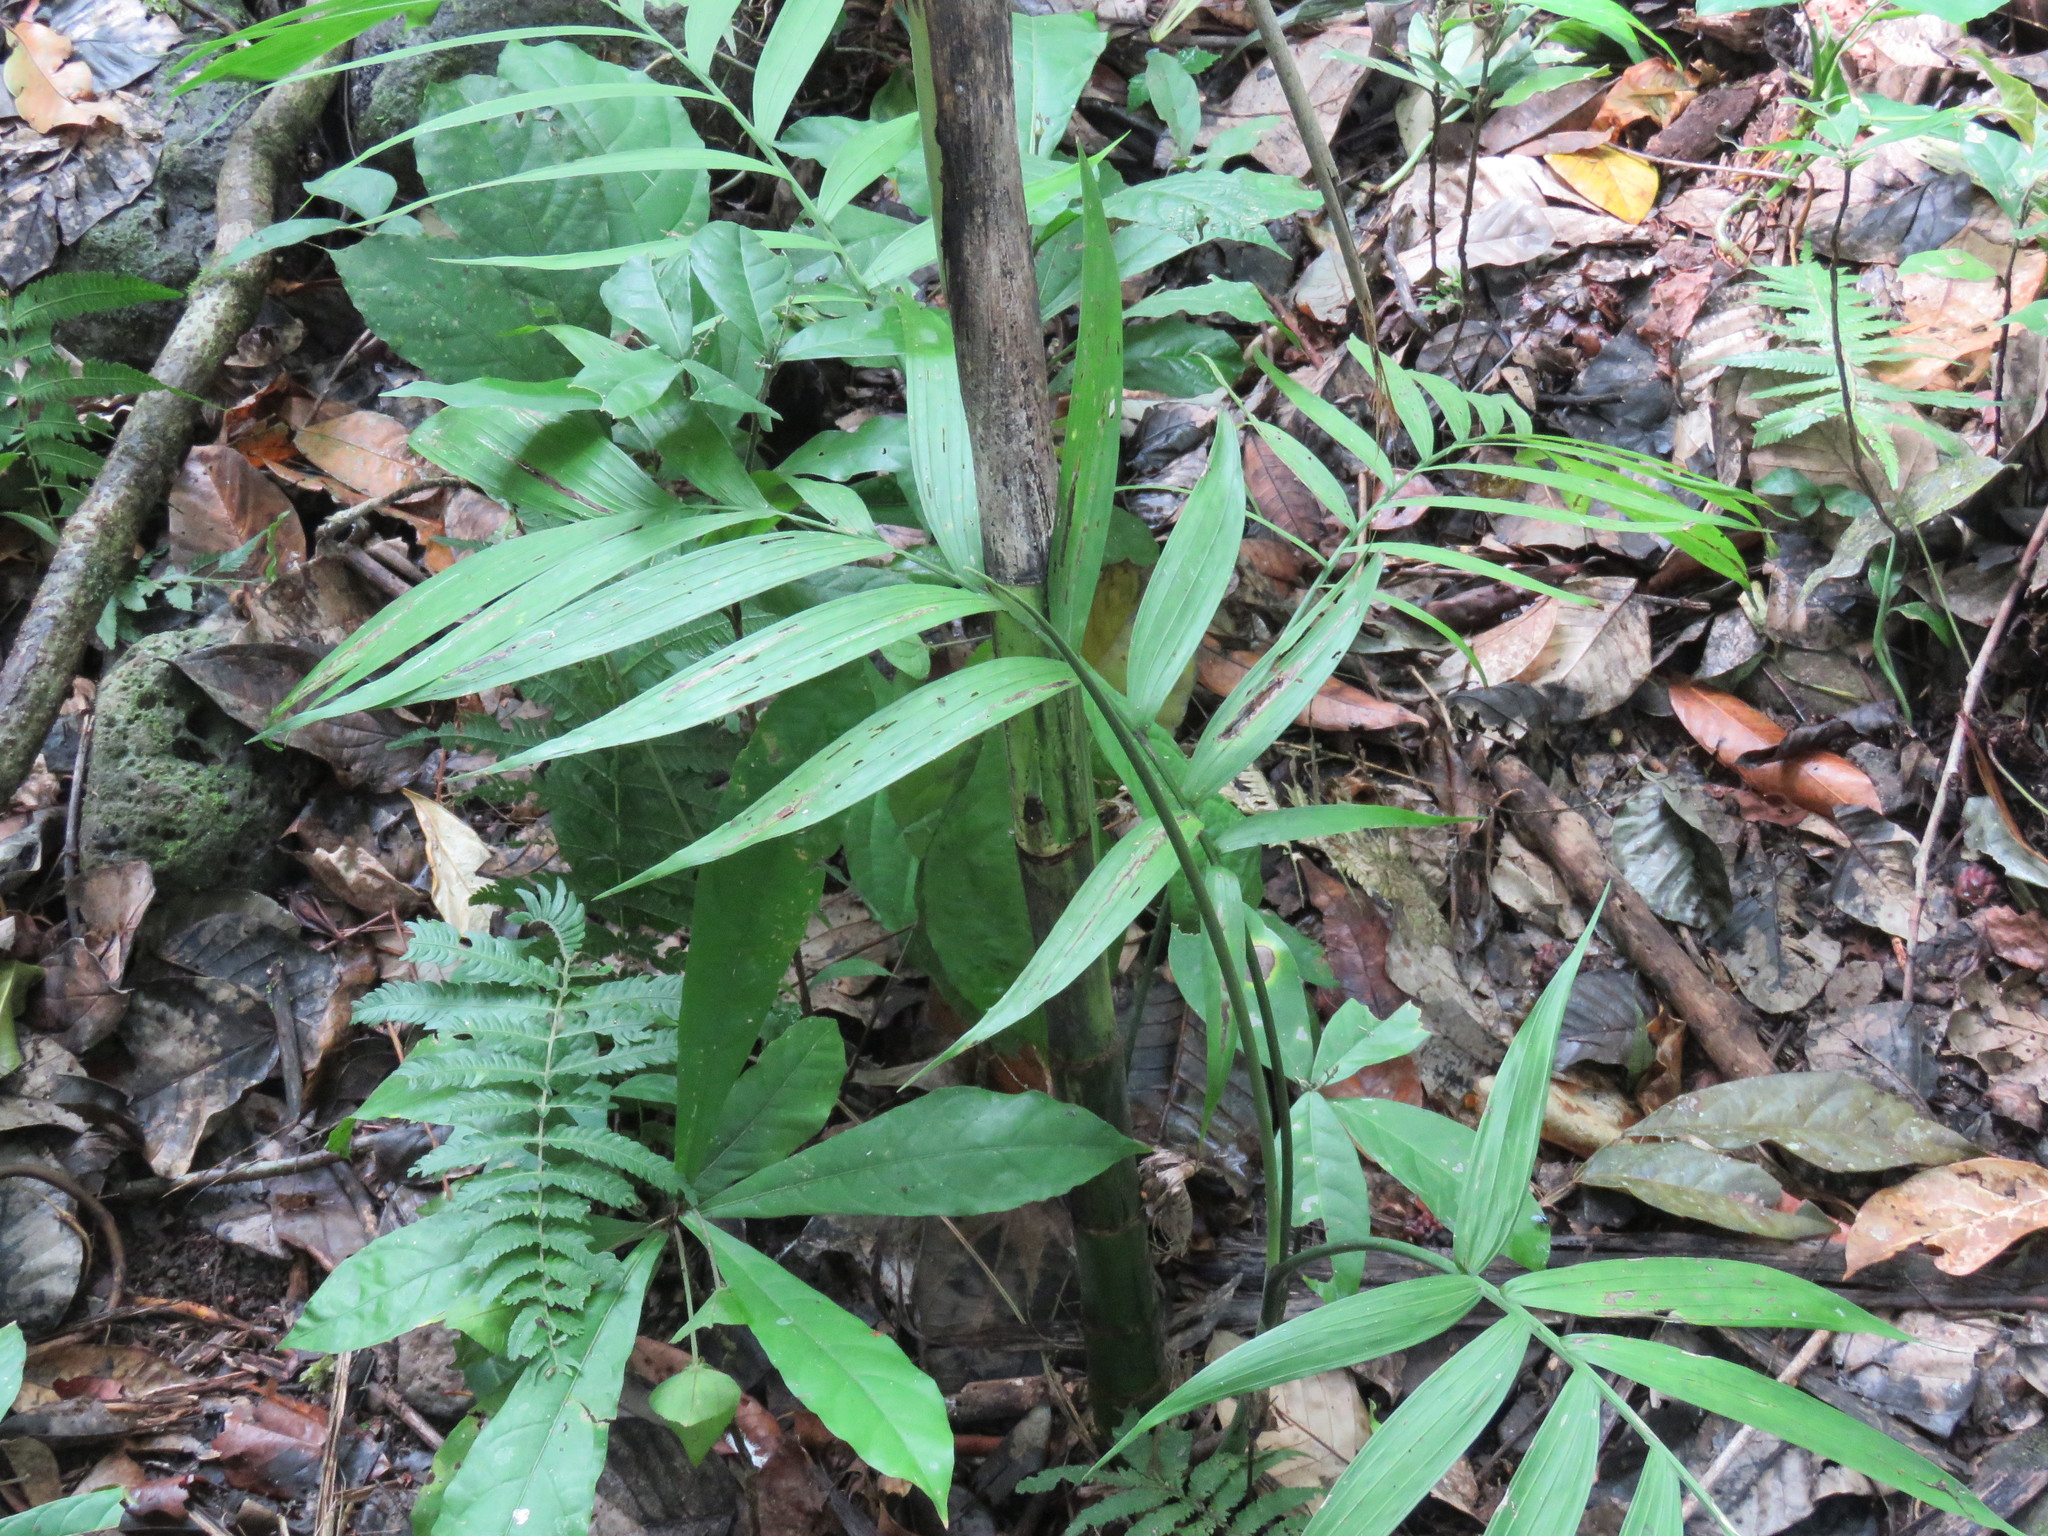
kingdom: Plantae
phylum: Tracheophyta
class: Liliopsida
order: Arecales
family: Arecaceae
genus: Chamaedorea
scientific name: Chamaedorea tepejilote
